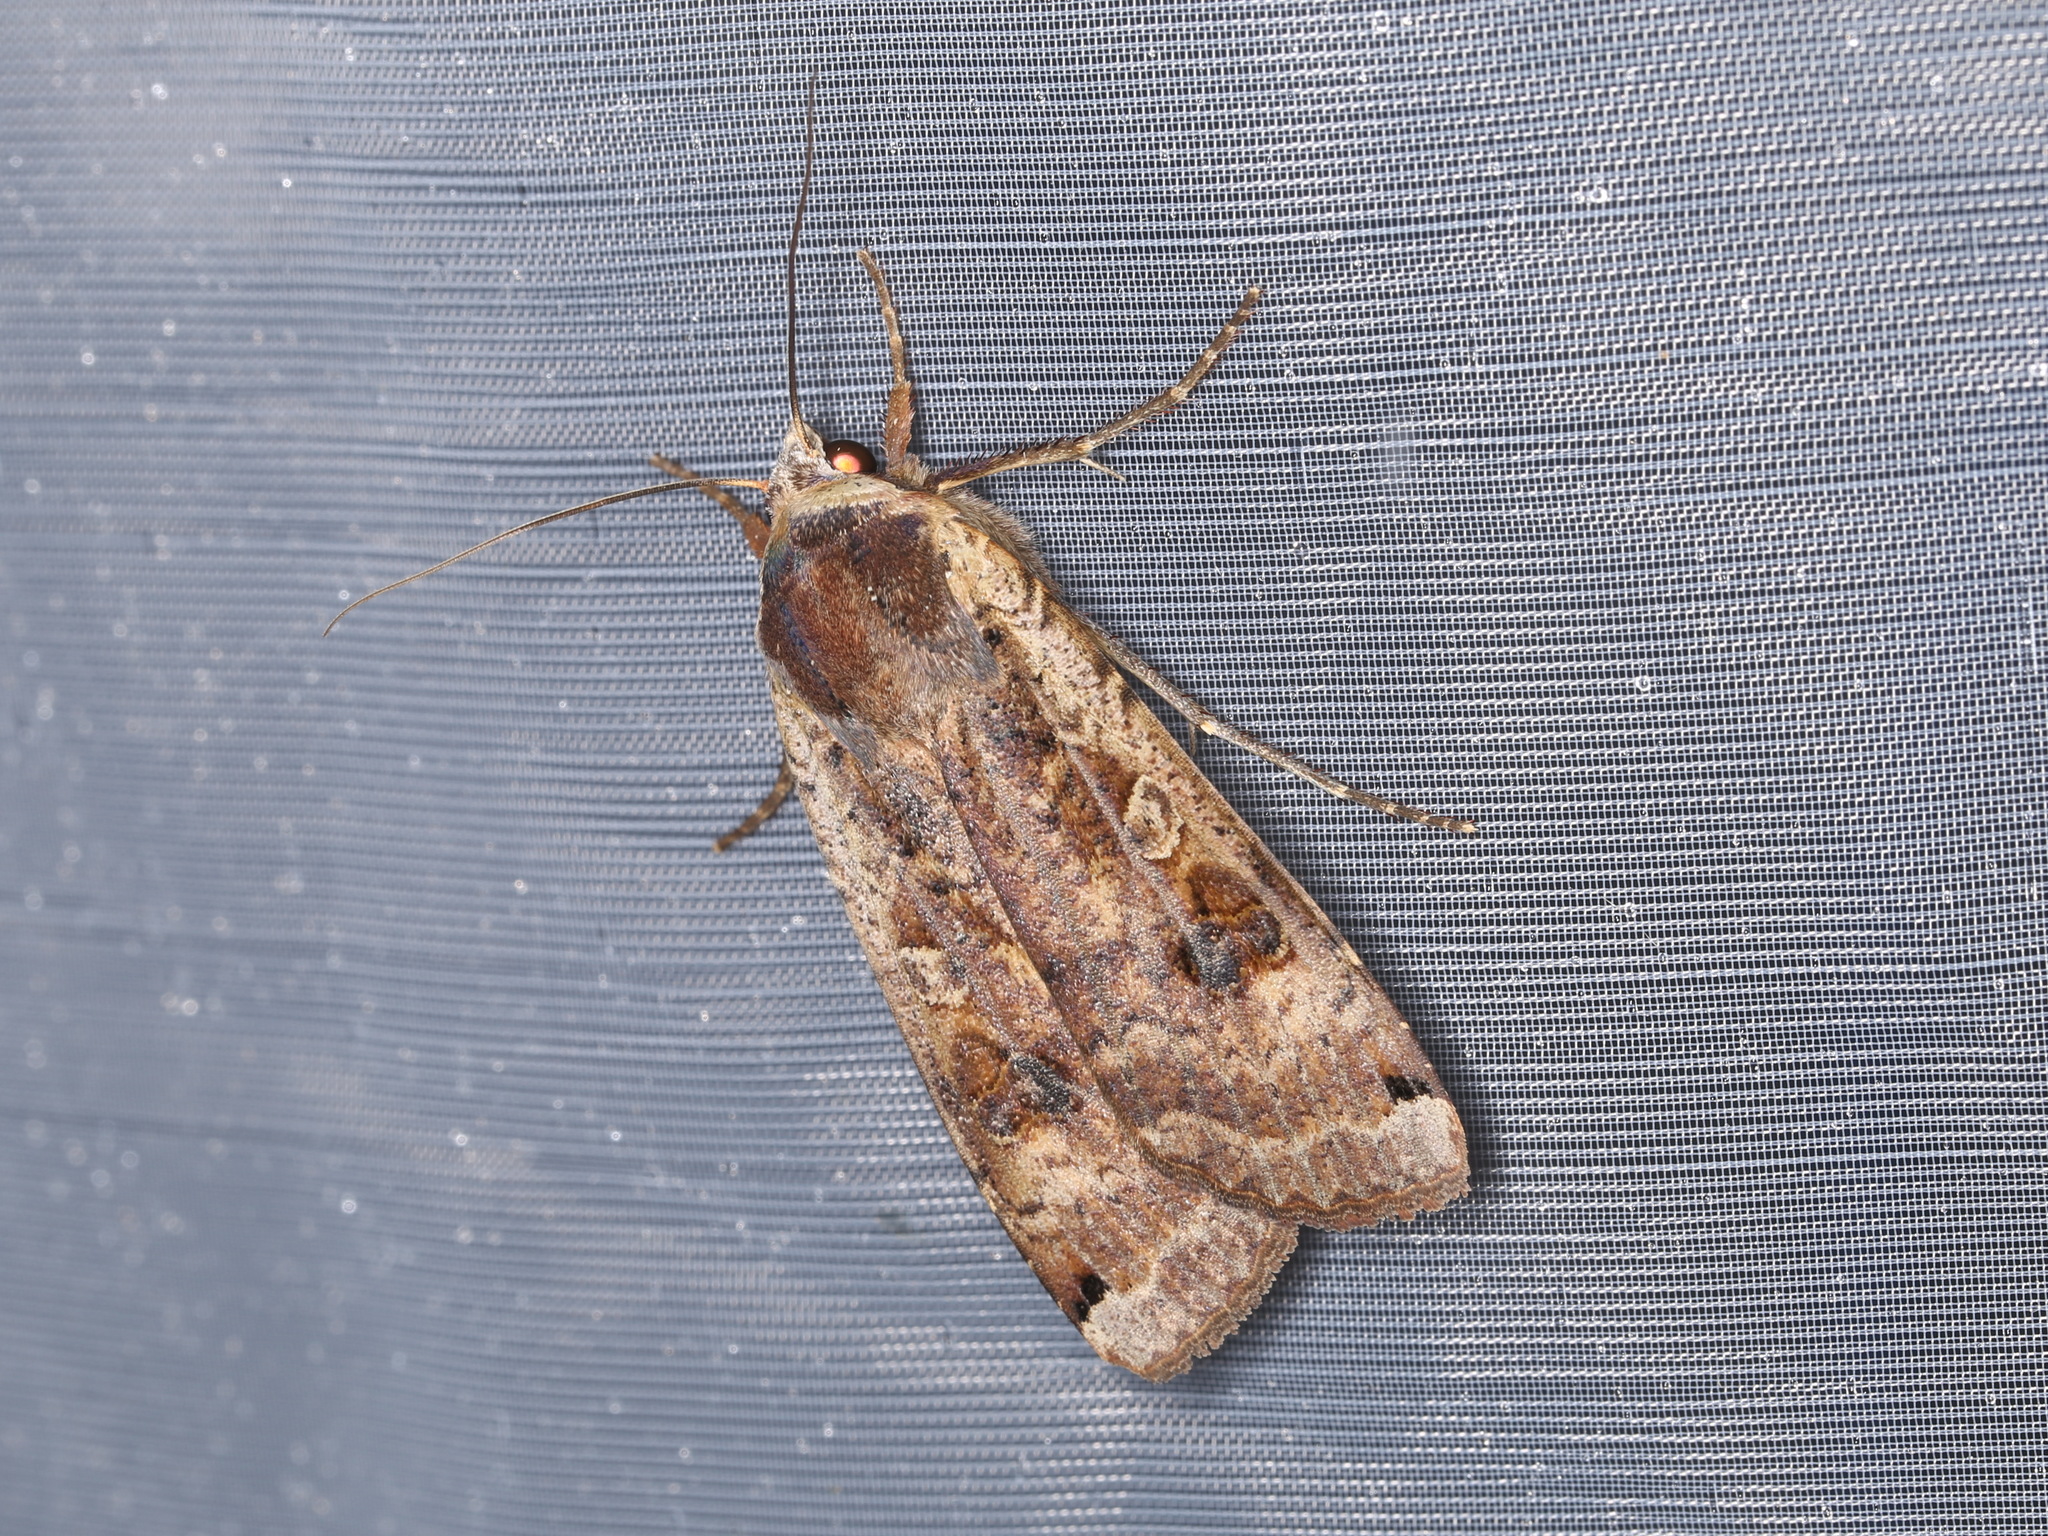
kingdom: Animalia
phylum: Arthropoda
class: Insecta
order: Lepidoptera
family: Noctuidae
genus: Noctua
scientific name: Noctua pronuba
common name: Large yellow underwing
